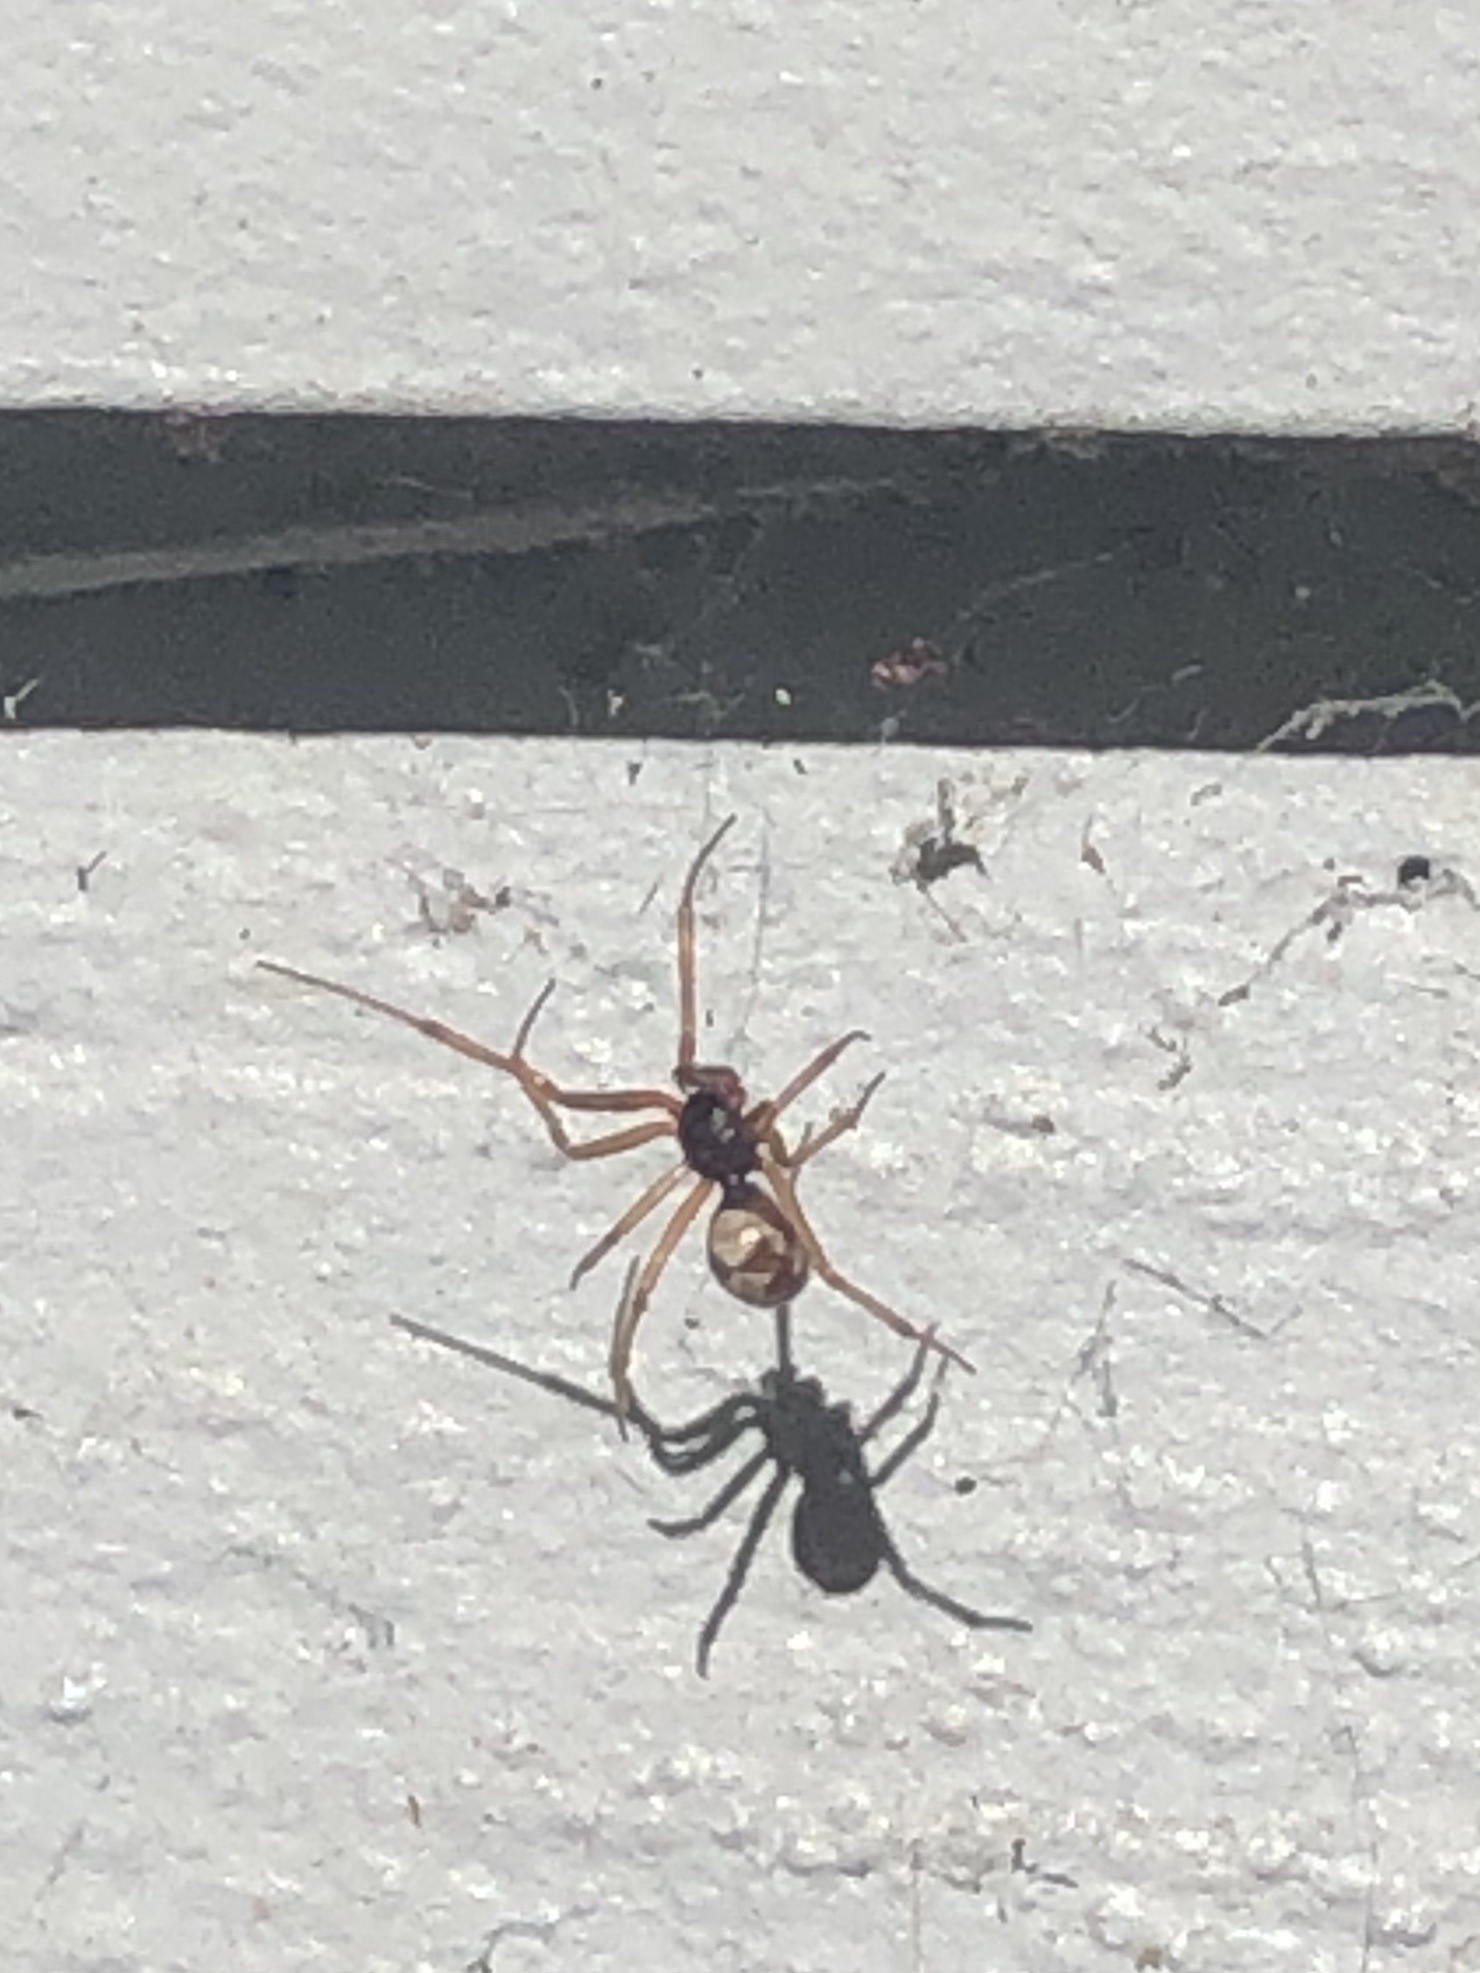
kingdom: Animalia
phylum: Arthropoda
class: Arachnida
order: Araneae
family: Theridiidae
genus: Steatoda
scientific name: Steatoda triangulosa
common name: Triangulate bud spider
